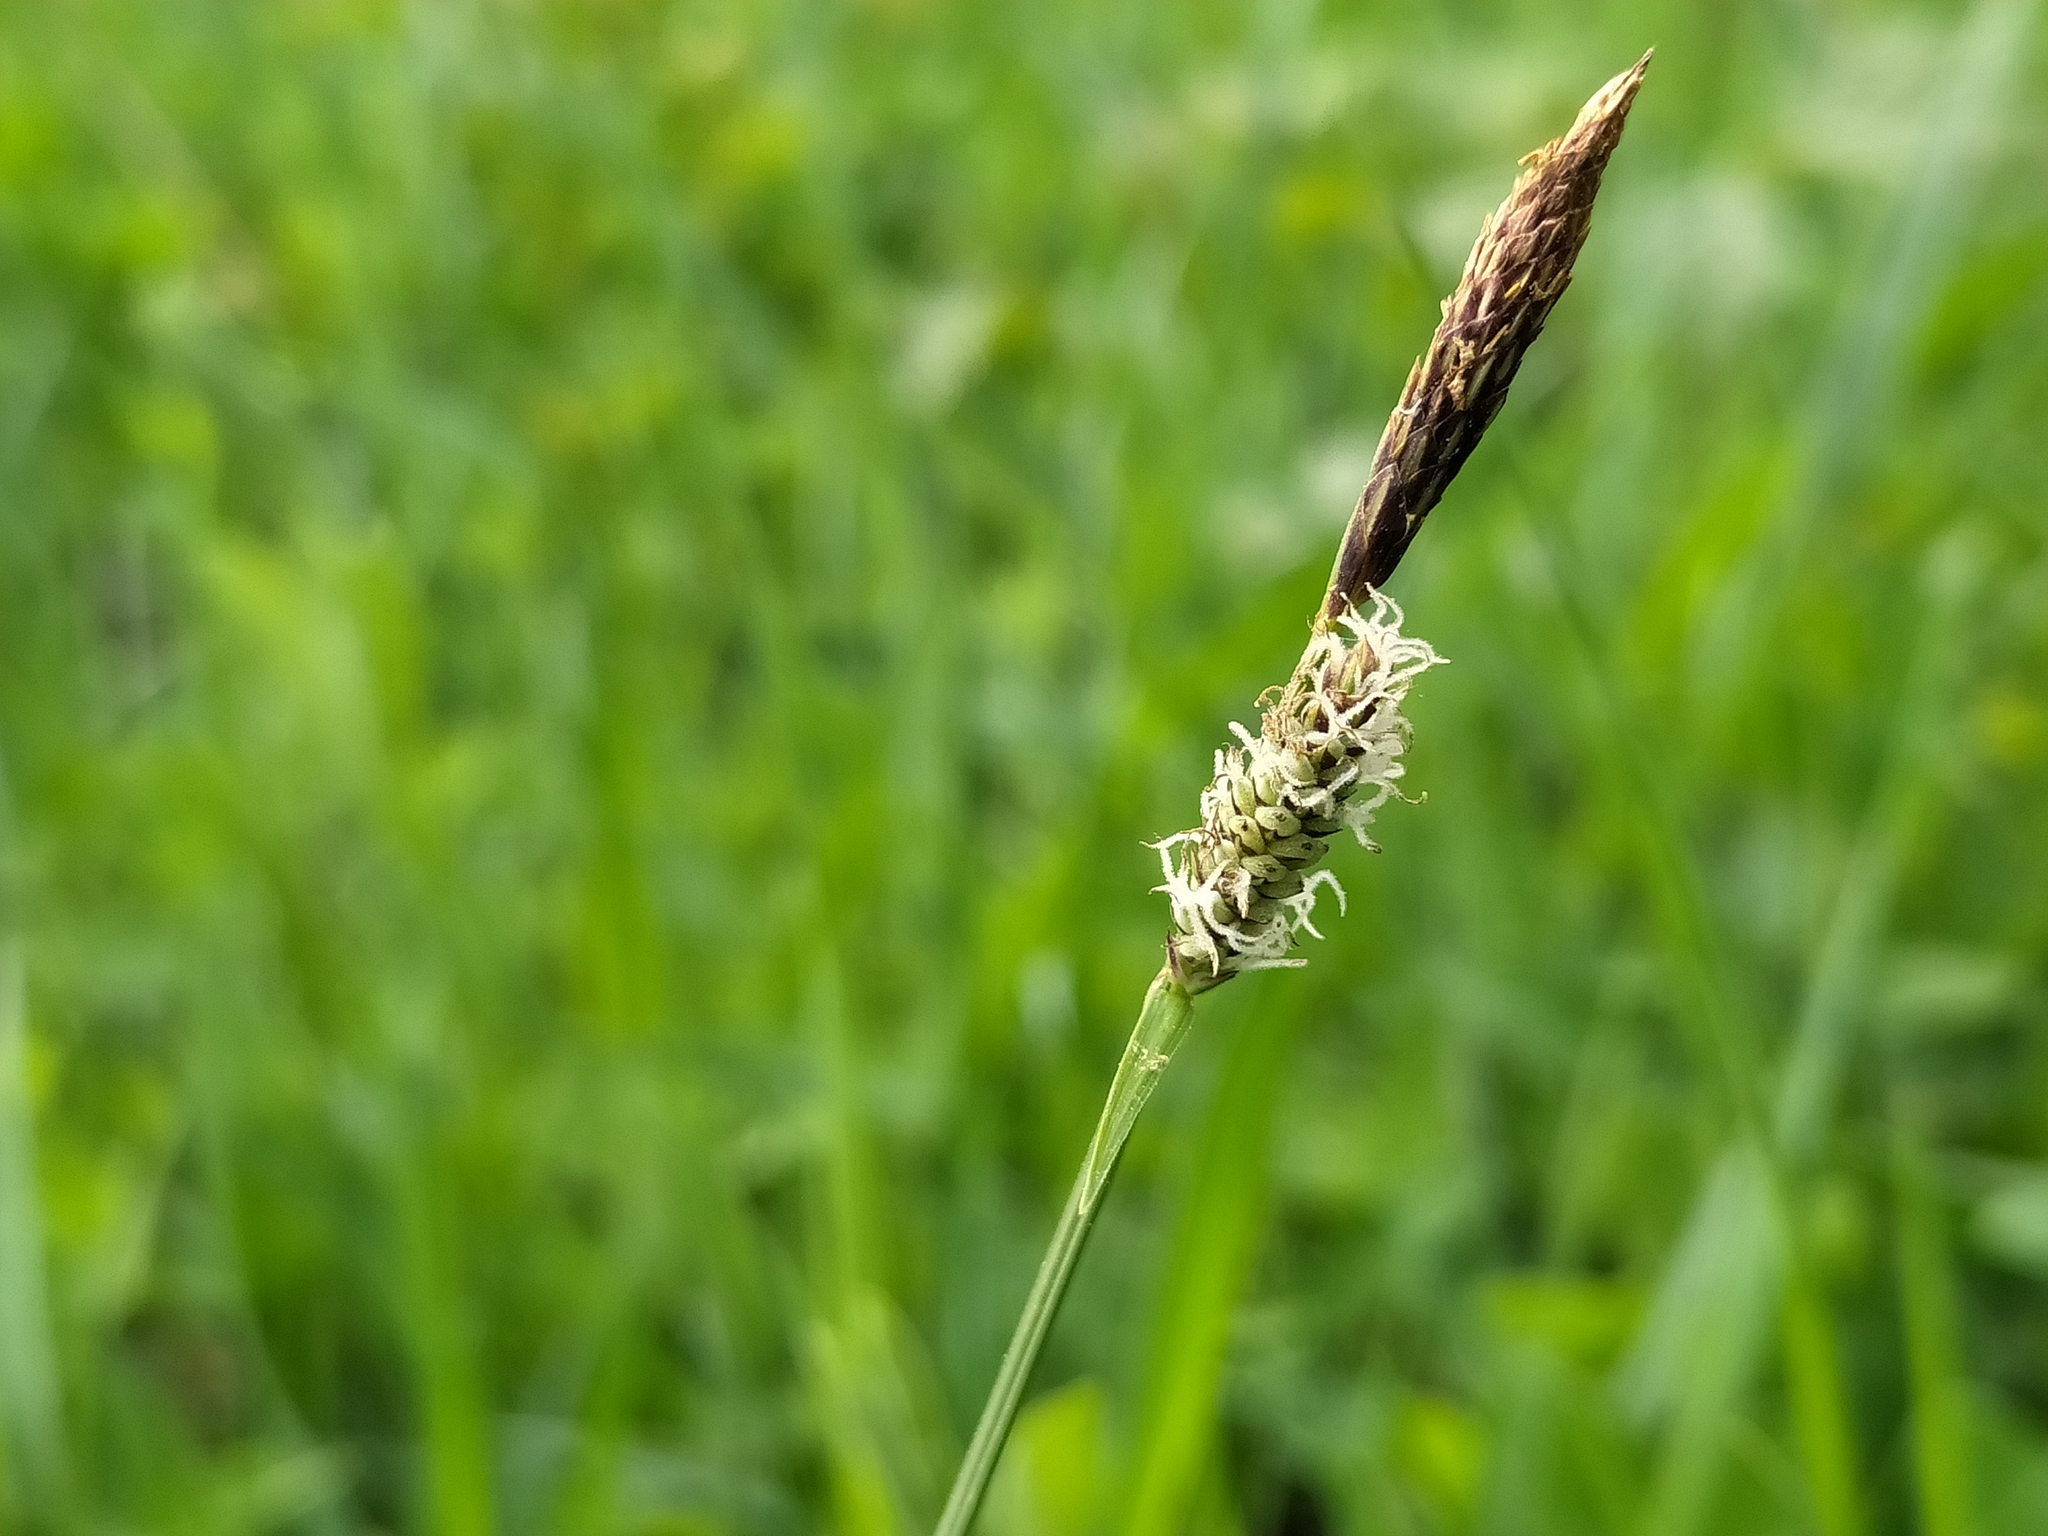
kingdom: Plantae
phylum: Tracheophyta
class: Liliopsida
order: Poales
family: Cyperaceae
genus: Carex
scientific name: Carex tomentosa
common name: Downy-fruited sedge
